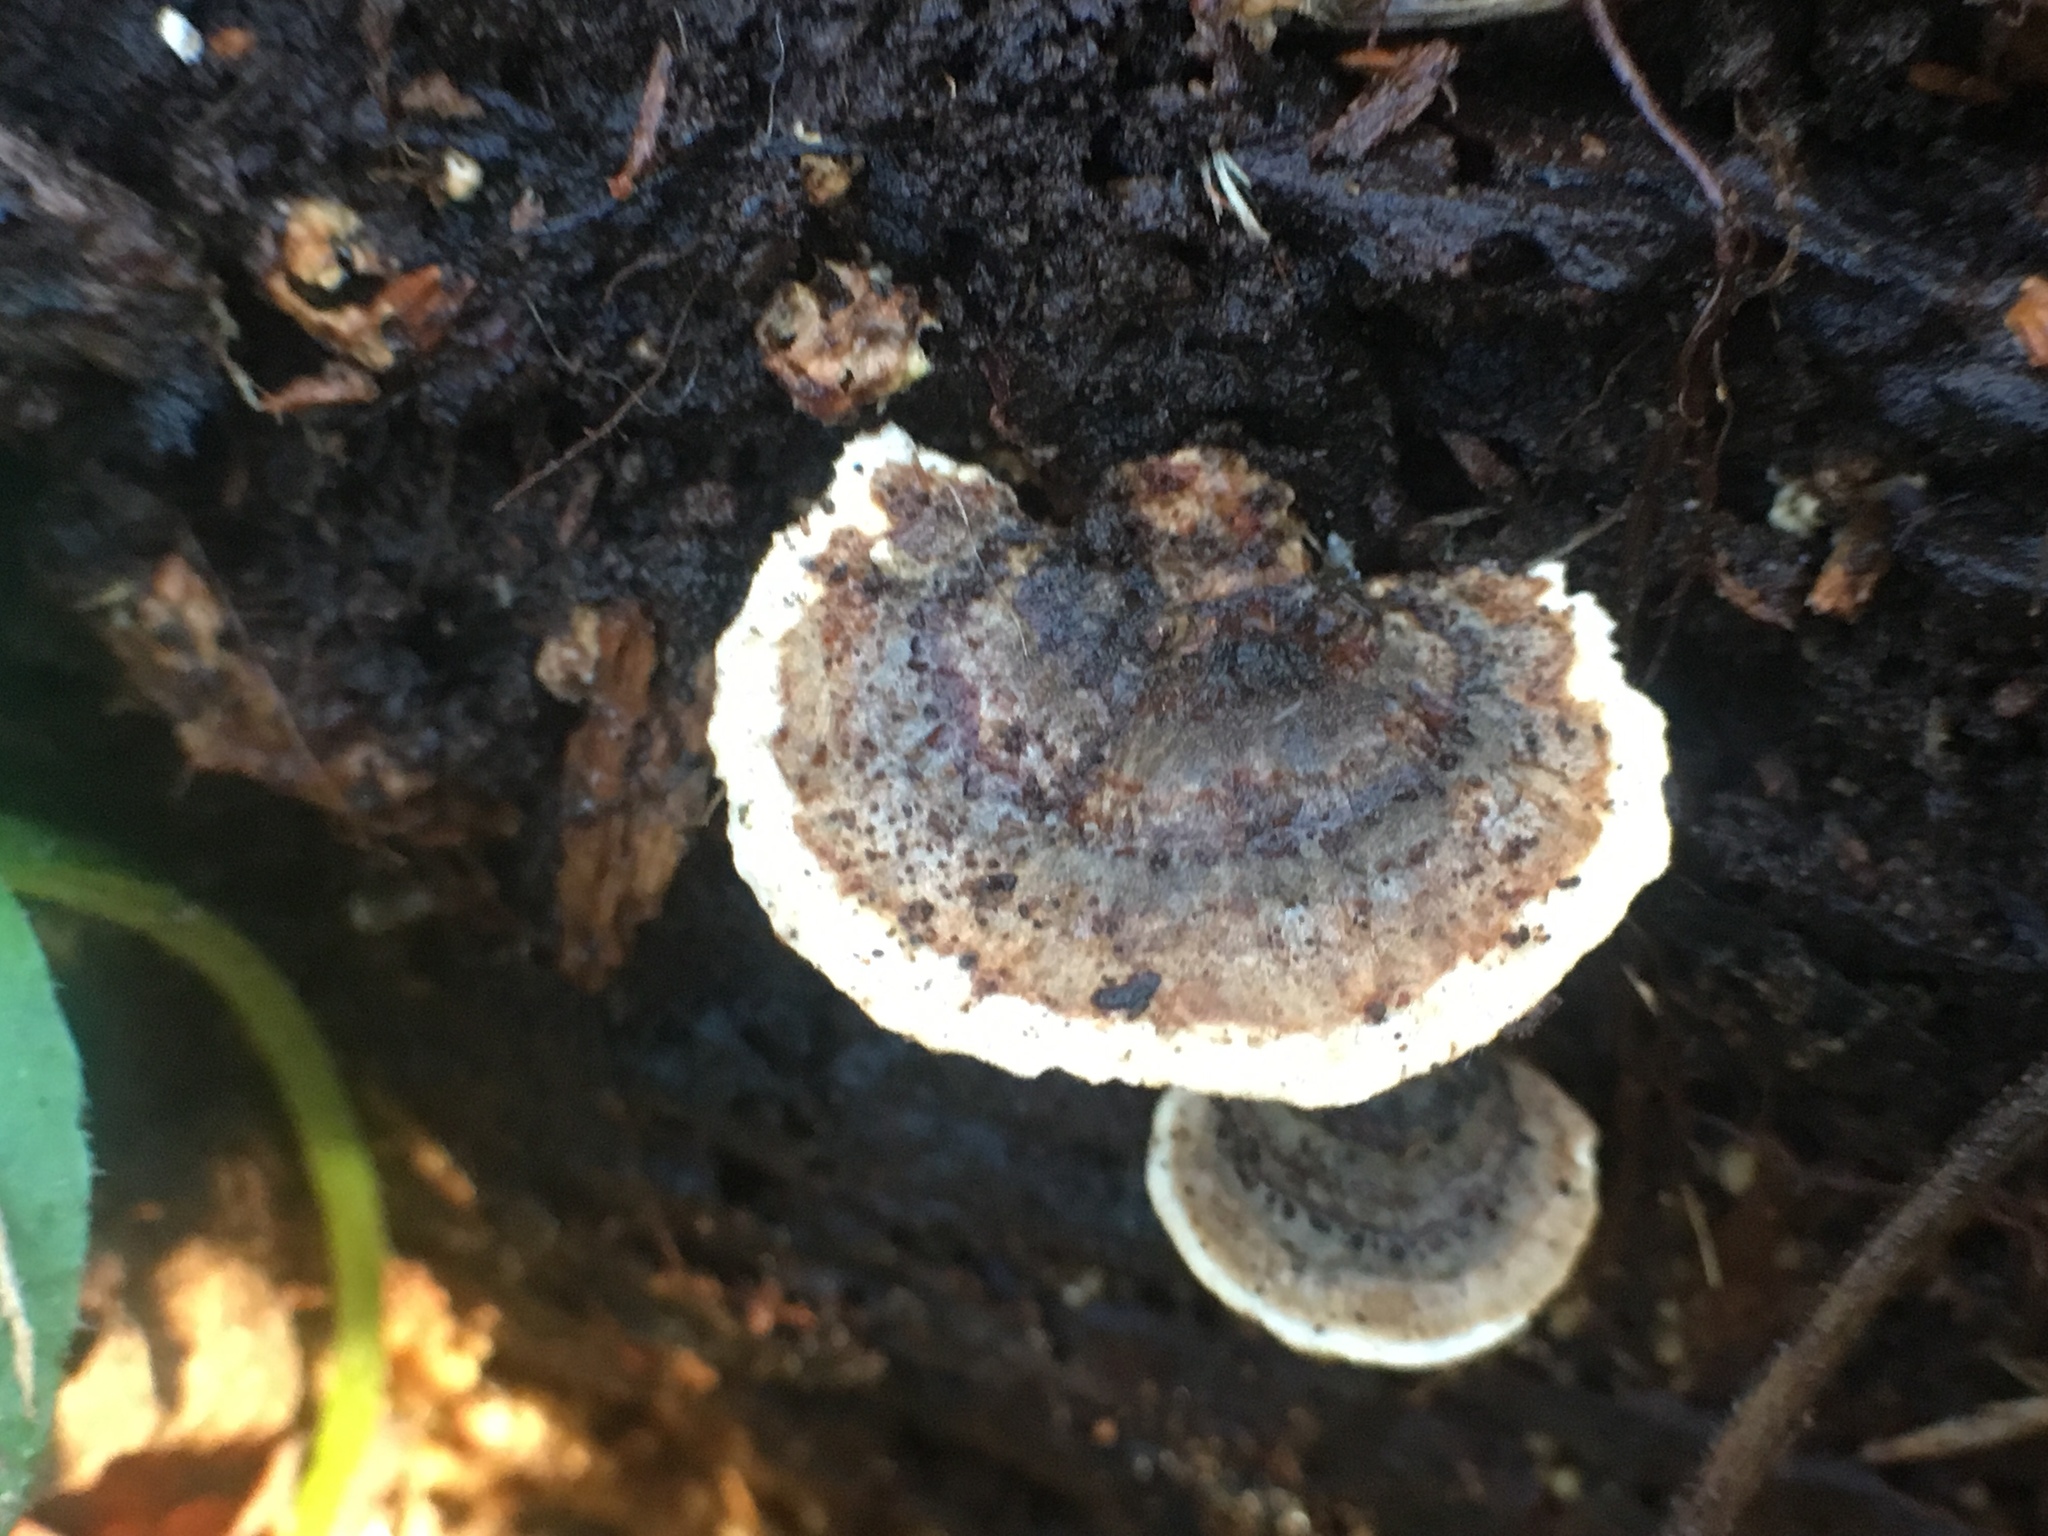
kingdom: Fungi
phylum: Basidiomycota
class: Agaricomycetes
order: Polyporales
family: Polyporaceae
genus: Trametes
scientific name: Trametes versicolor
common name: Turkeytail
